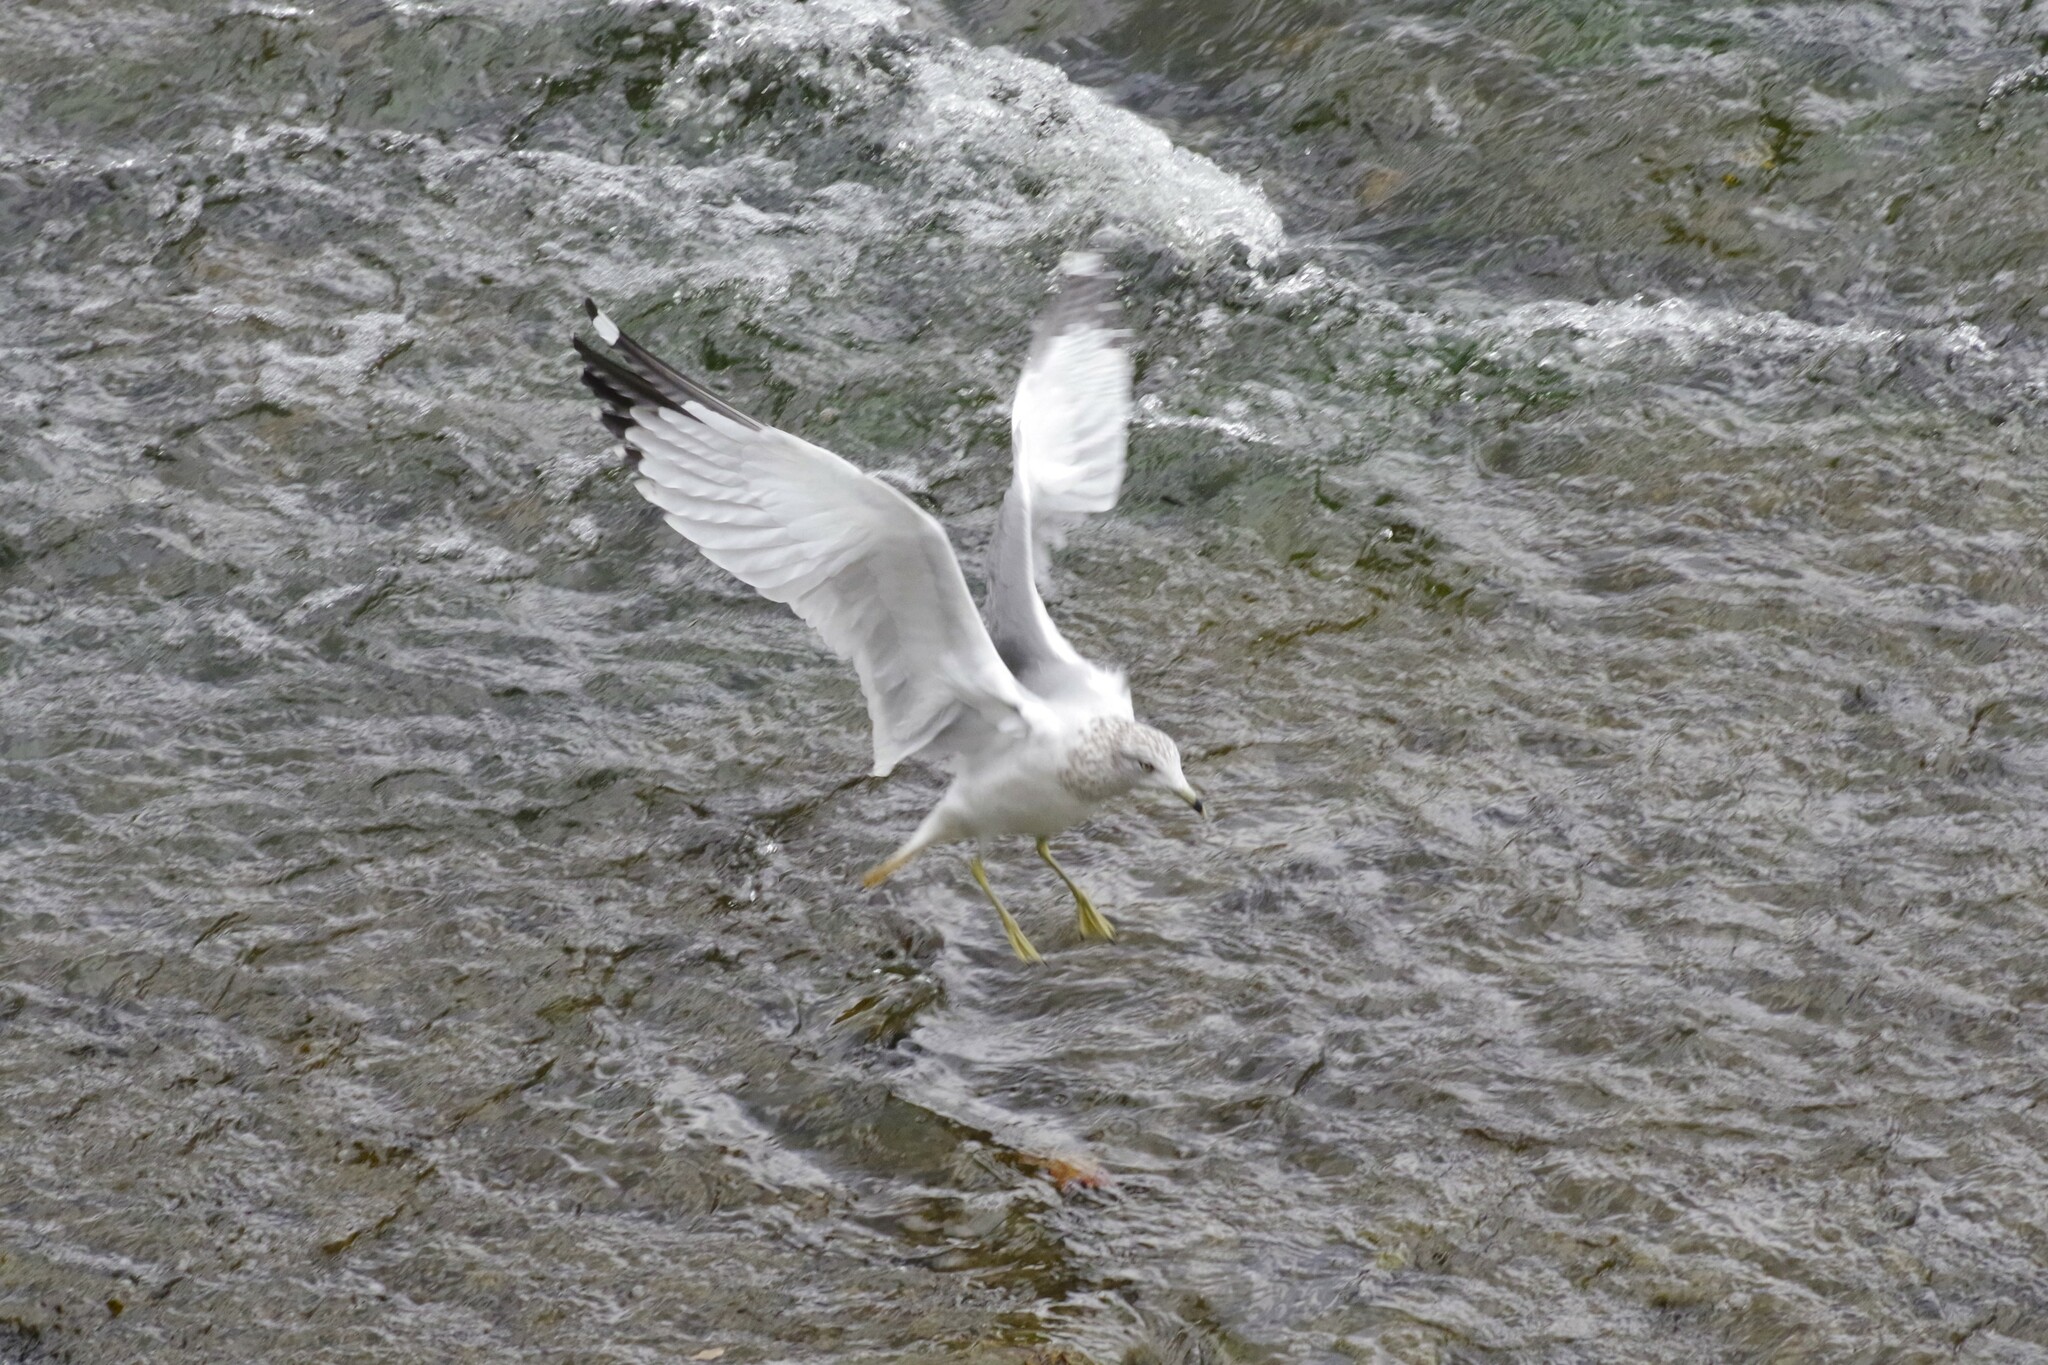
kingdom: Animalia
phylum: Chordata
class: Aves
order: Charadriiformes
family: Laridae
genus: Larus
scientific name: Larus delawarensis
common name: Ring-billed gull
